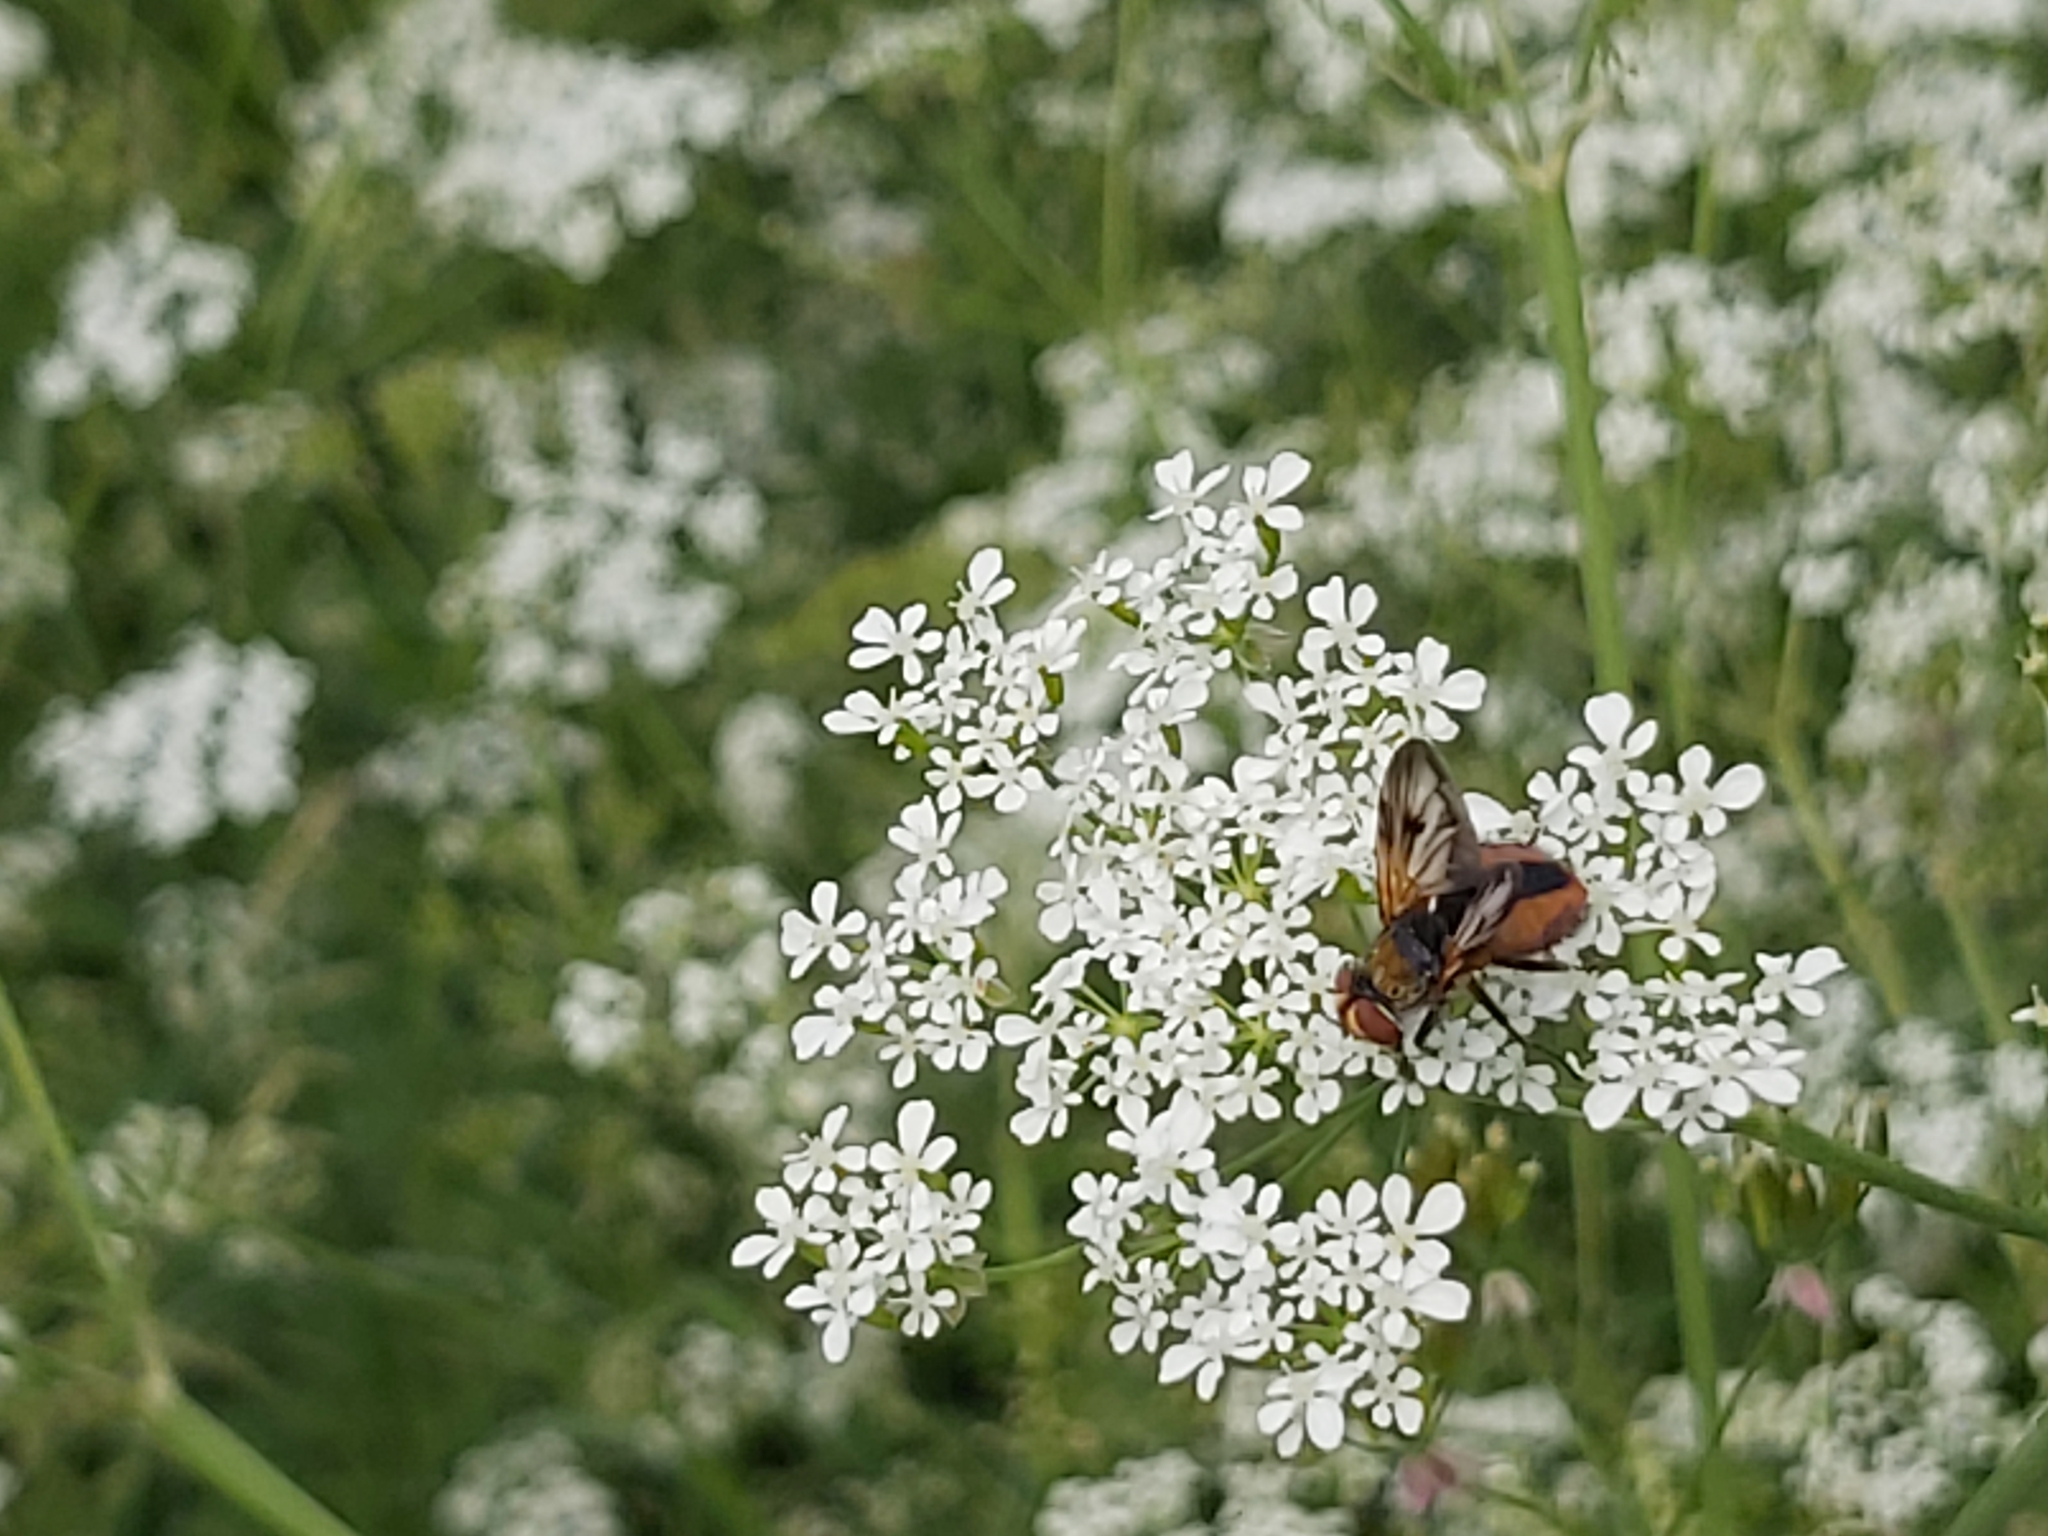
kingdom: Animalia
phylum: Arthropoda
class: Insecta
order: Diptera
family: Tachinidae
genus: Ectophasia
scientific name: Ectophasia crassipennis
